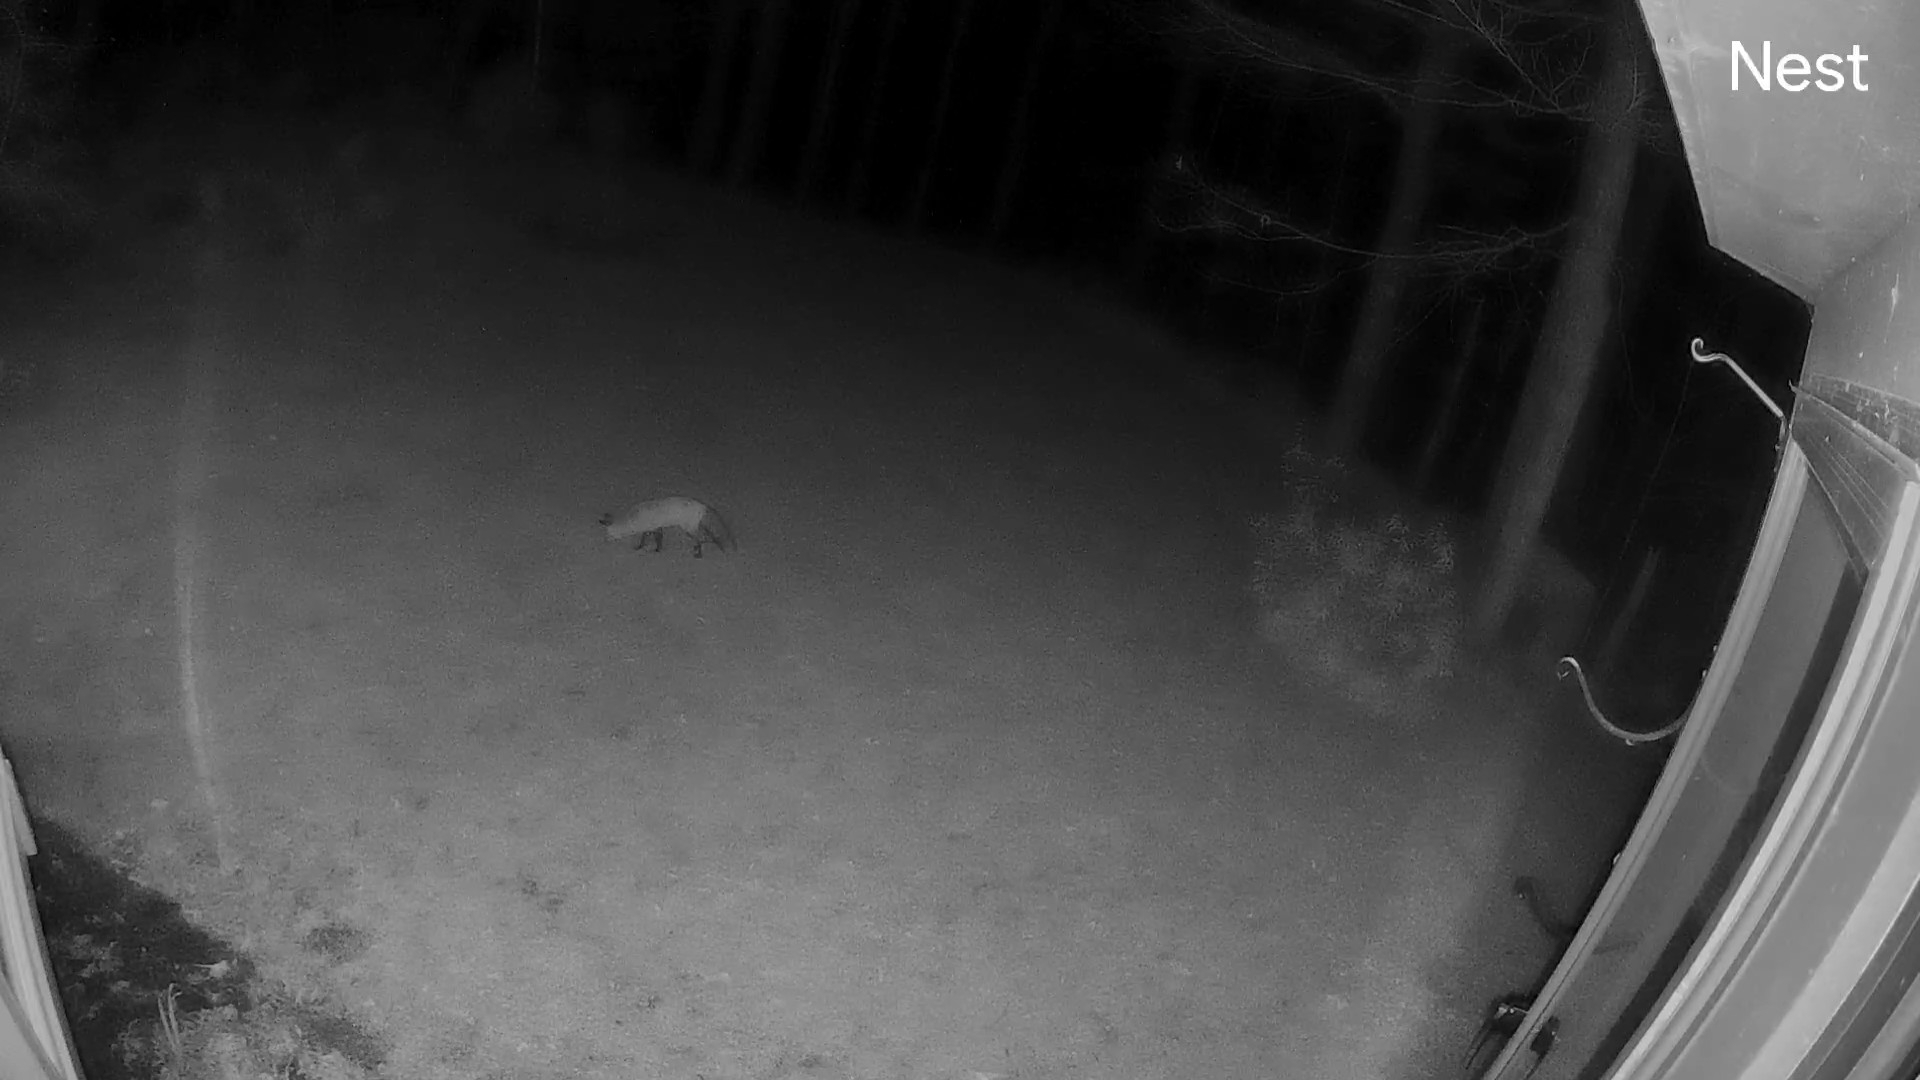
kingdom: Animalia
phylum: Chordata
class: Mammalia
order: Carnivora
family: Canidae
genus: Vulpes
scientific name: Vulpes vulpes
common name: Red fox
